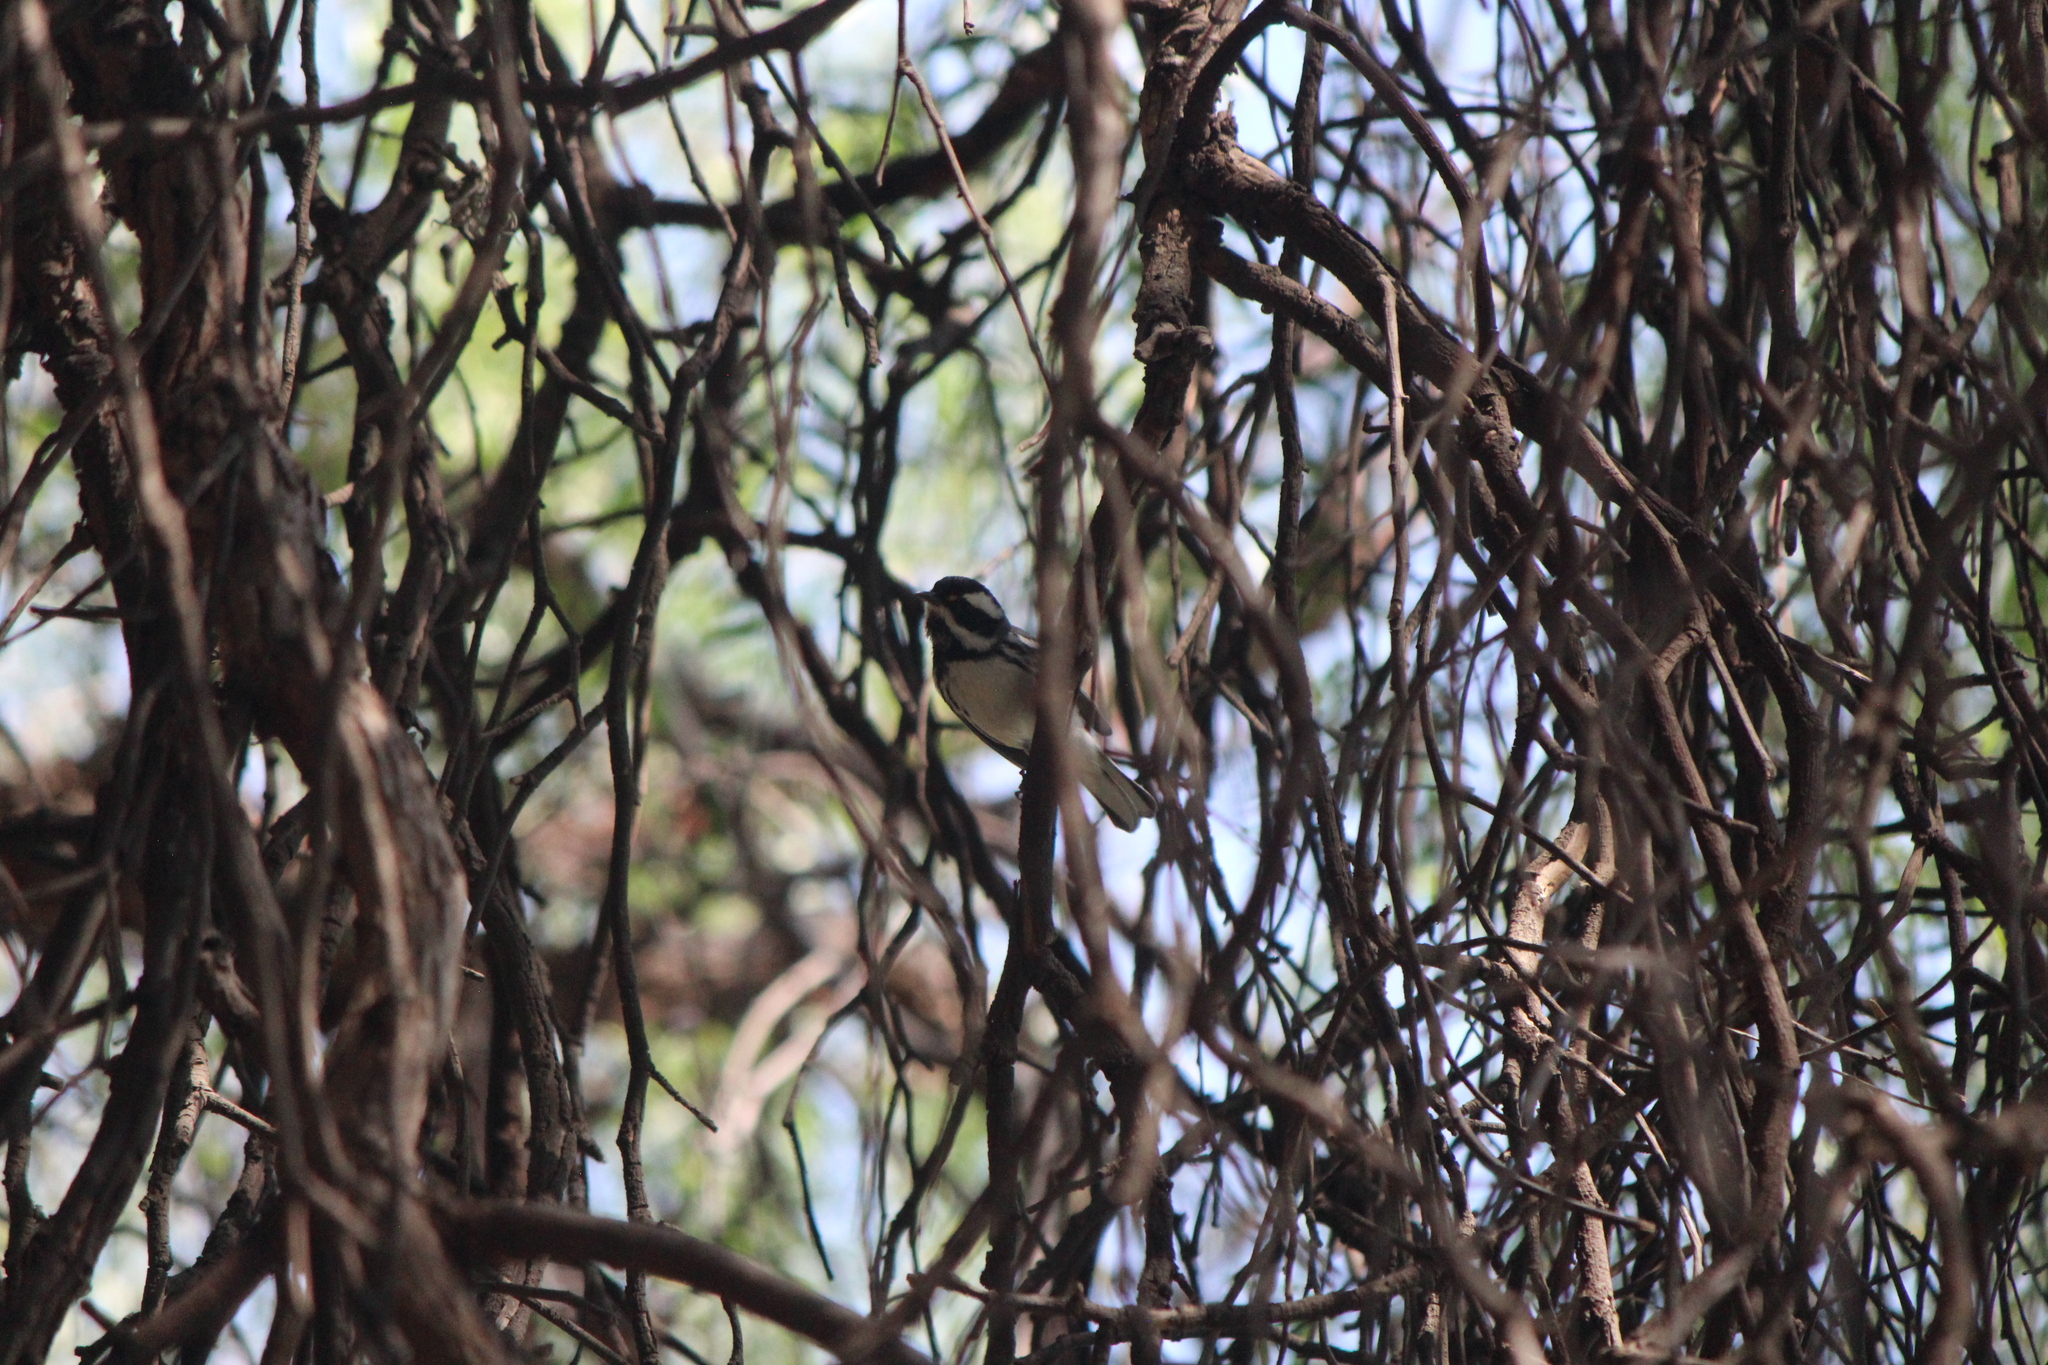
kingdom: Animalia
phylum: Chordata
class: Aves
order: Passeriformes
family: Parulidae
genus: Setophaga
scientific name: Setophaga nigrescens
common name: Black-throated gray warbler
